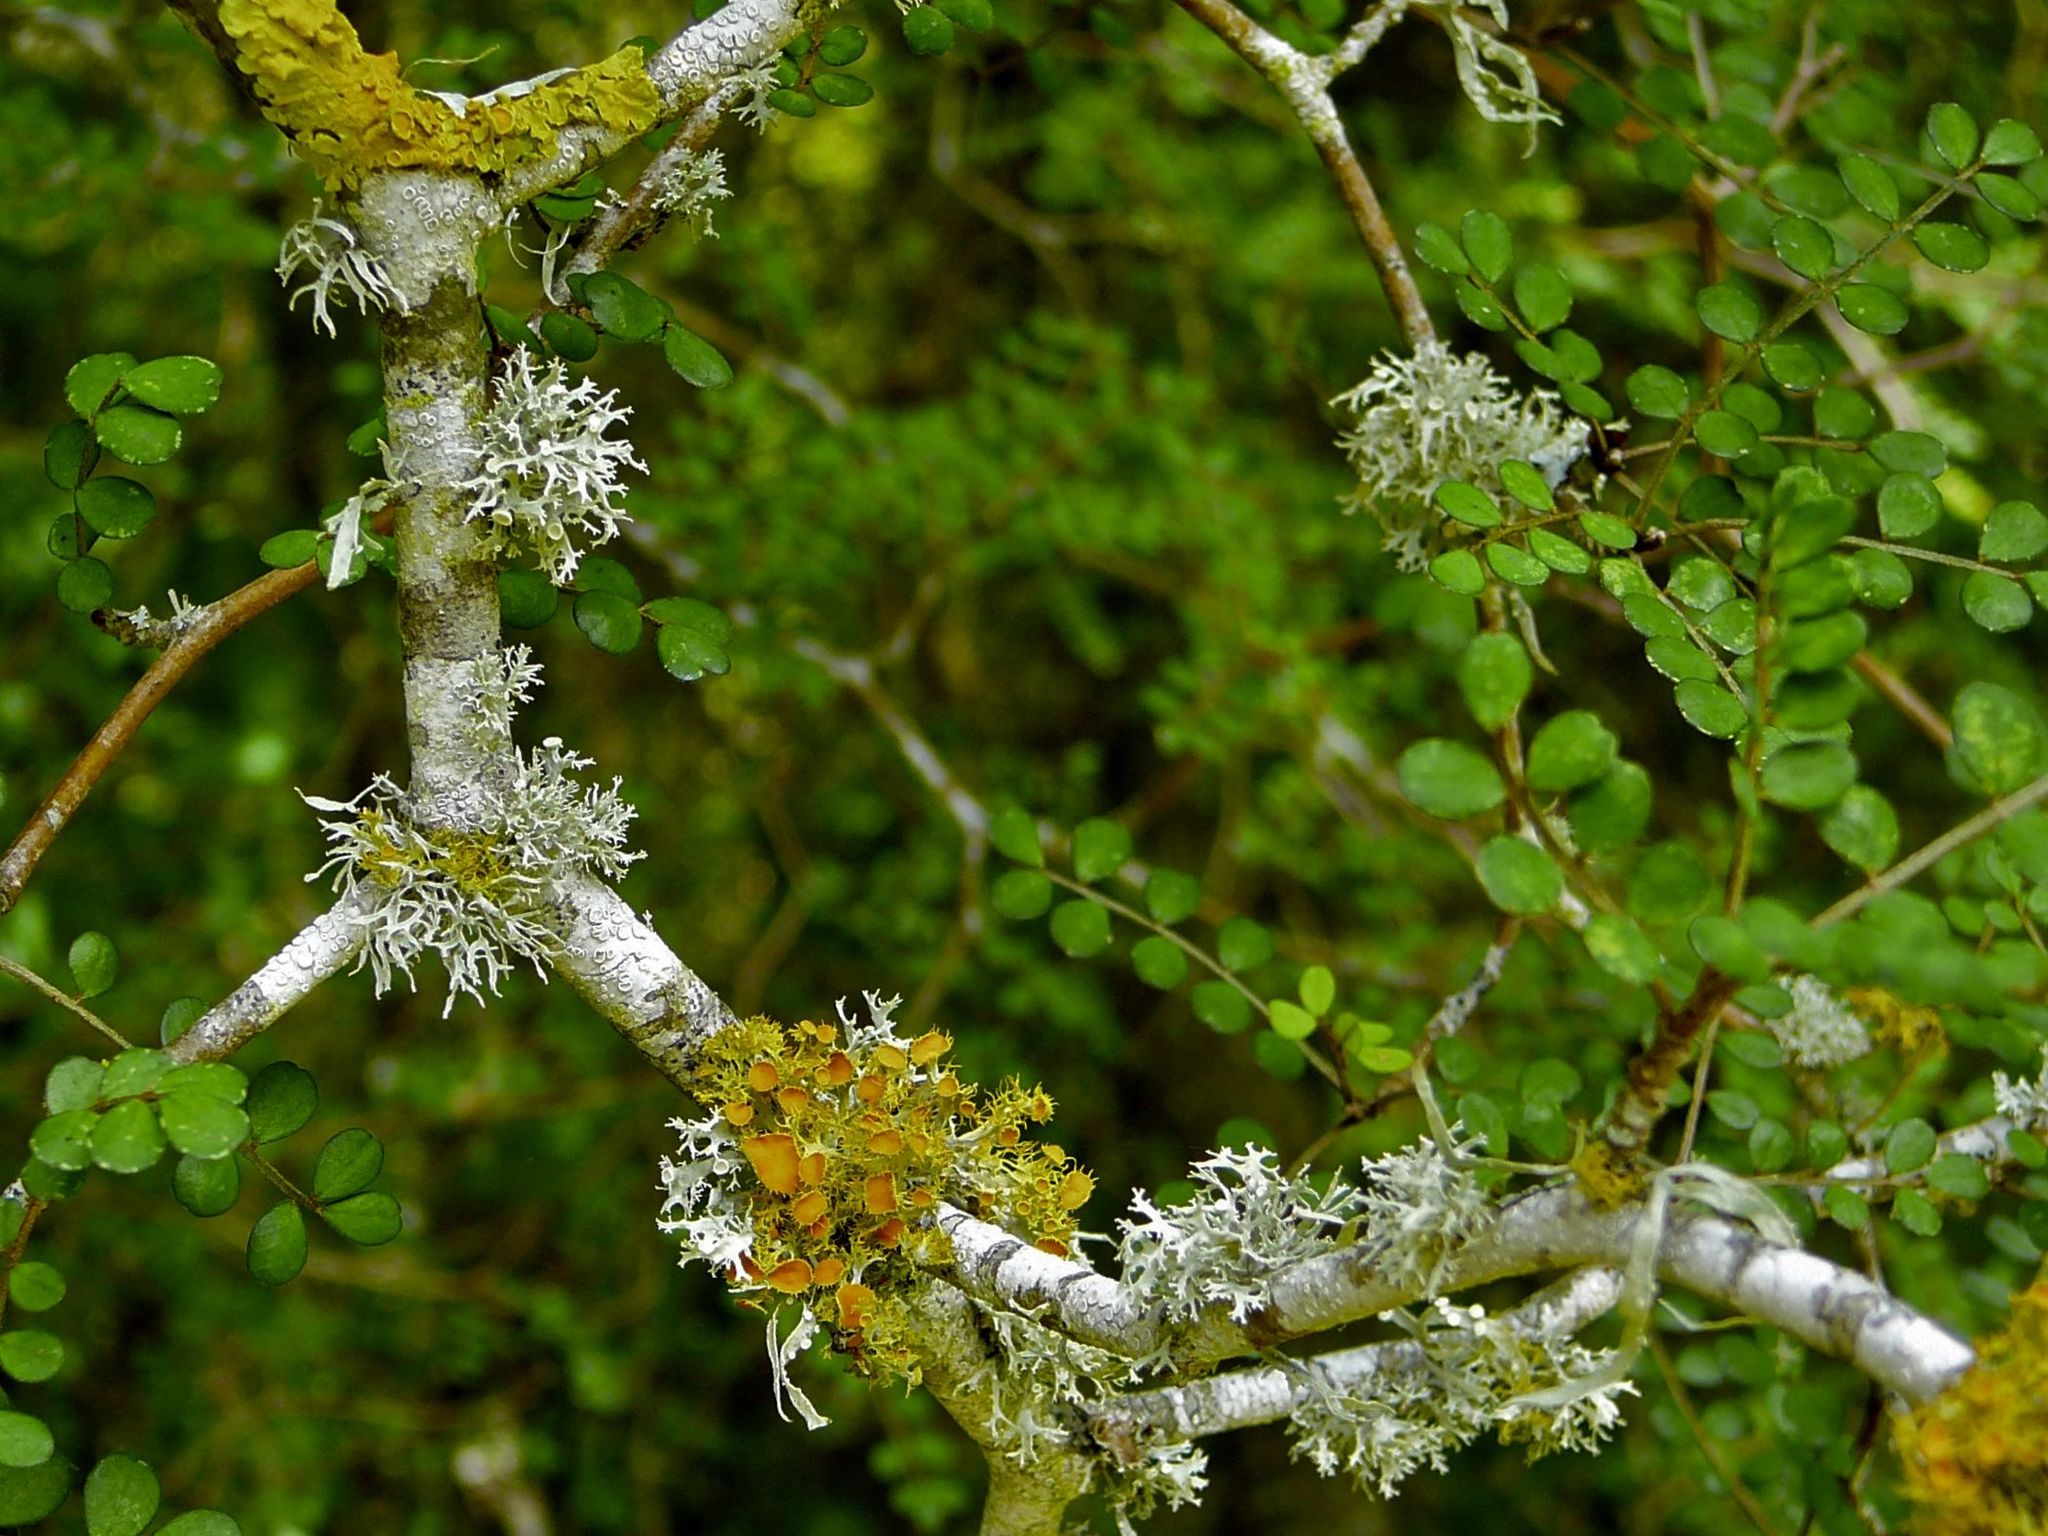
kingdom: Fungi
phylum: Ascomycota
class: Lecanoromycetes
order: Teloschistales
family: Teloschistaceae
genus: Niorma
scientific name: Niorma chrysophthalma
